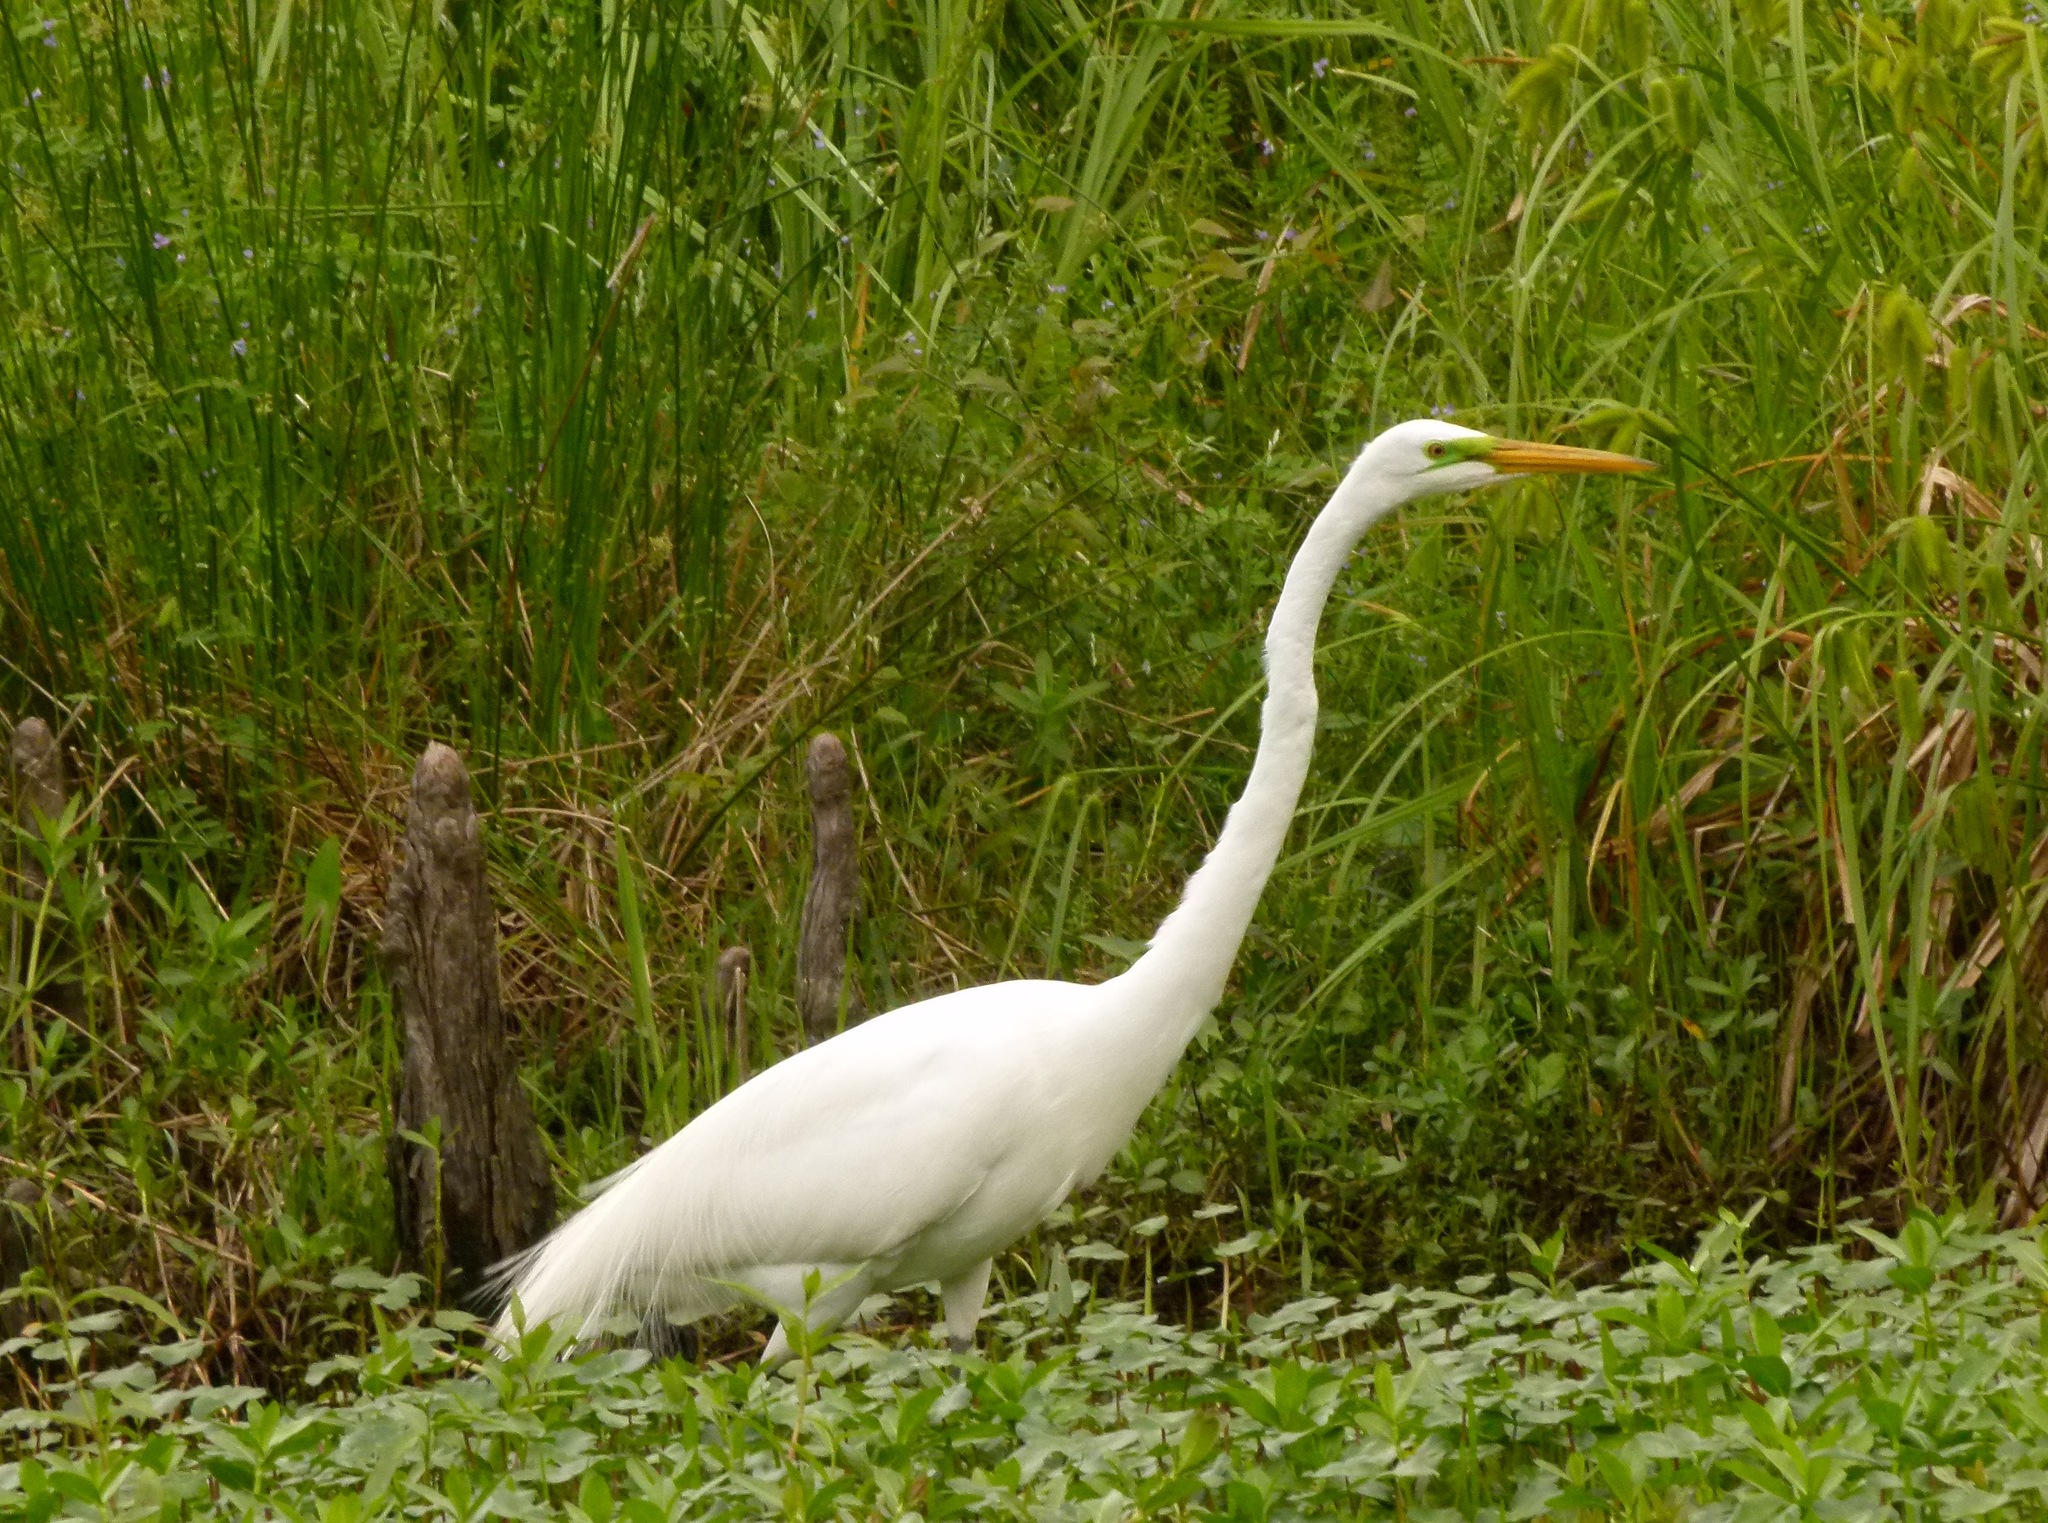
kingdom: Animalia
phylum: Chordata
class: Aves
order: Pelecaniformes
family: Ardeidae
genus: Ardea
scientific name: Ardea alba
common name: Great egret
